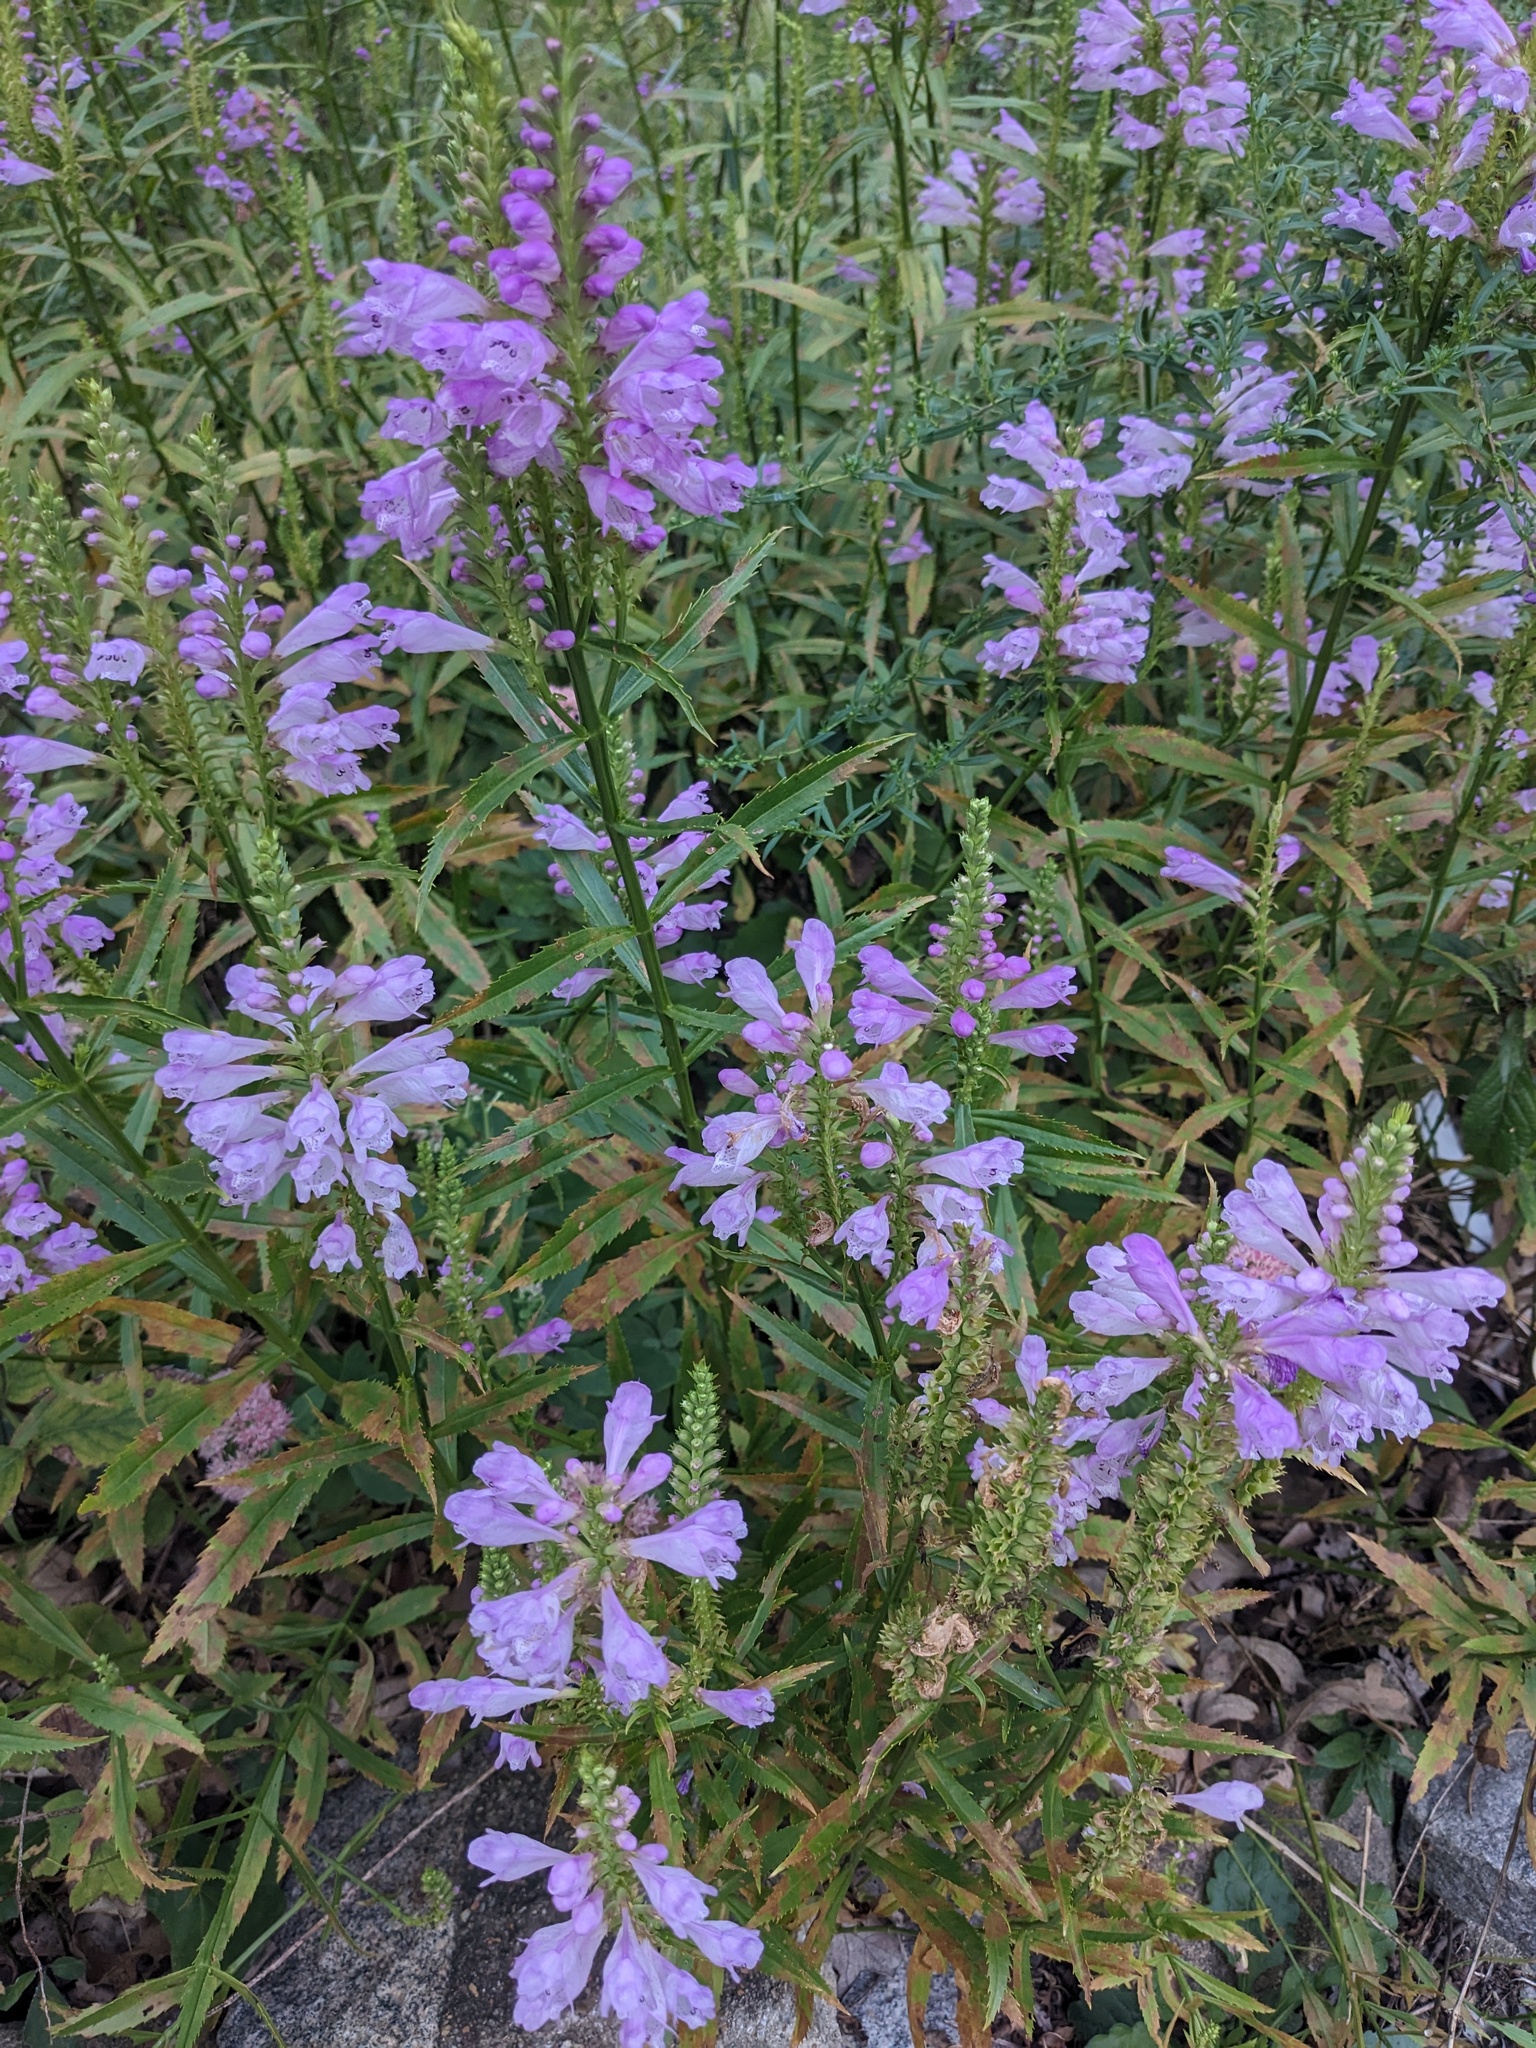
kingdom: Plantae
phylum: Tracheophyta
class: Magnoliopsida
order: Lamiales
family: Lamiaceae
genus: Physostegia
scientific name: Physostegia virginiana
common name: Obedient-plant
